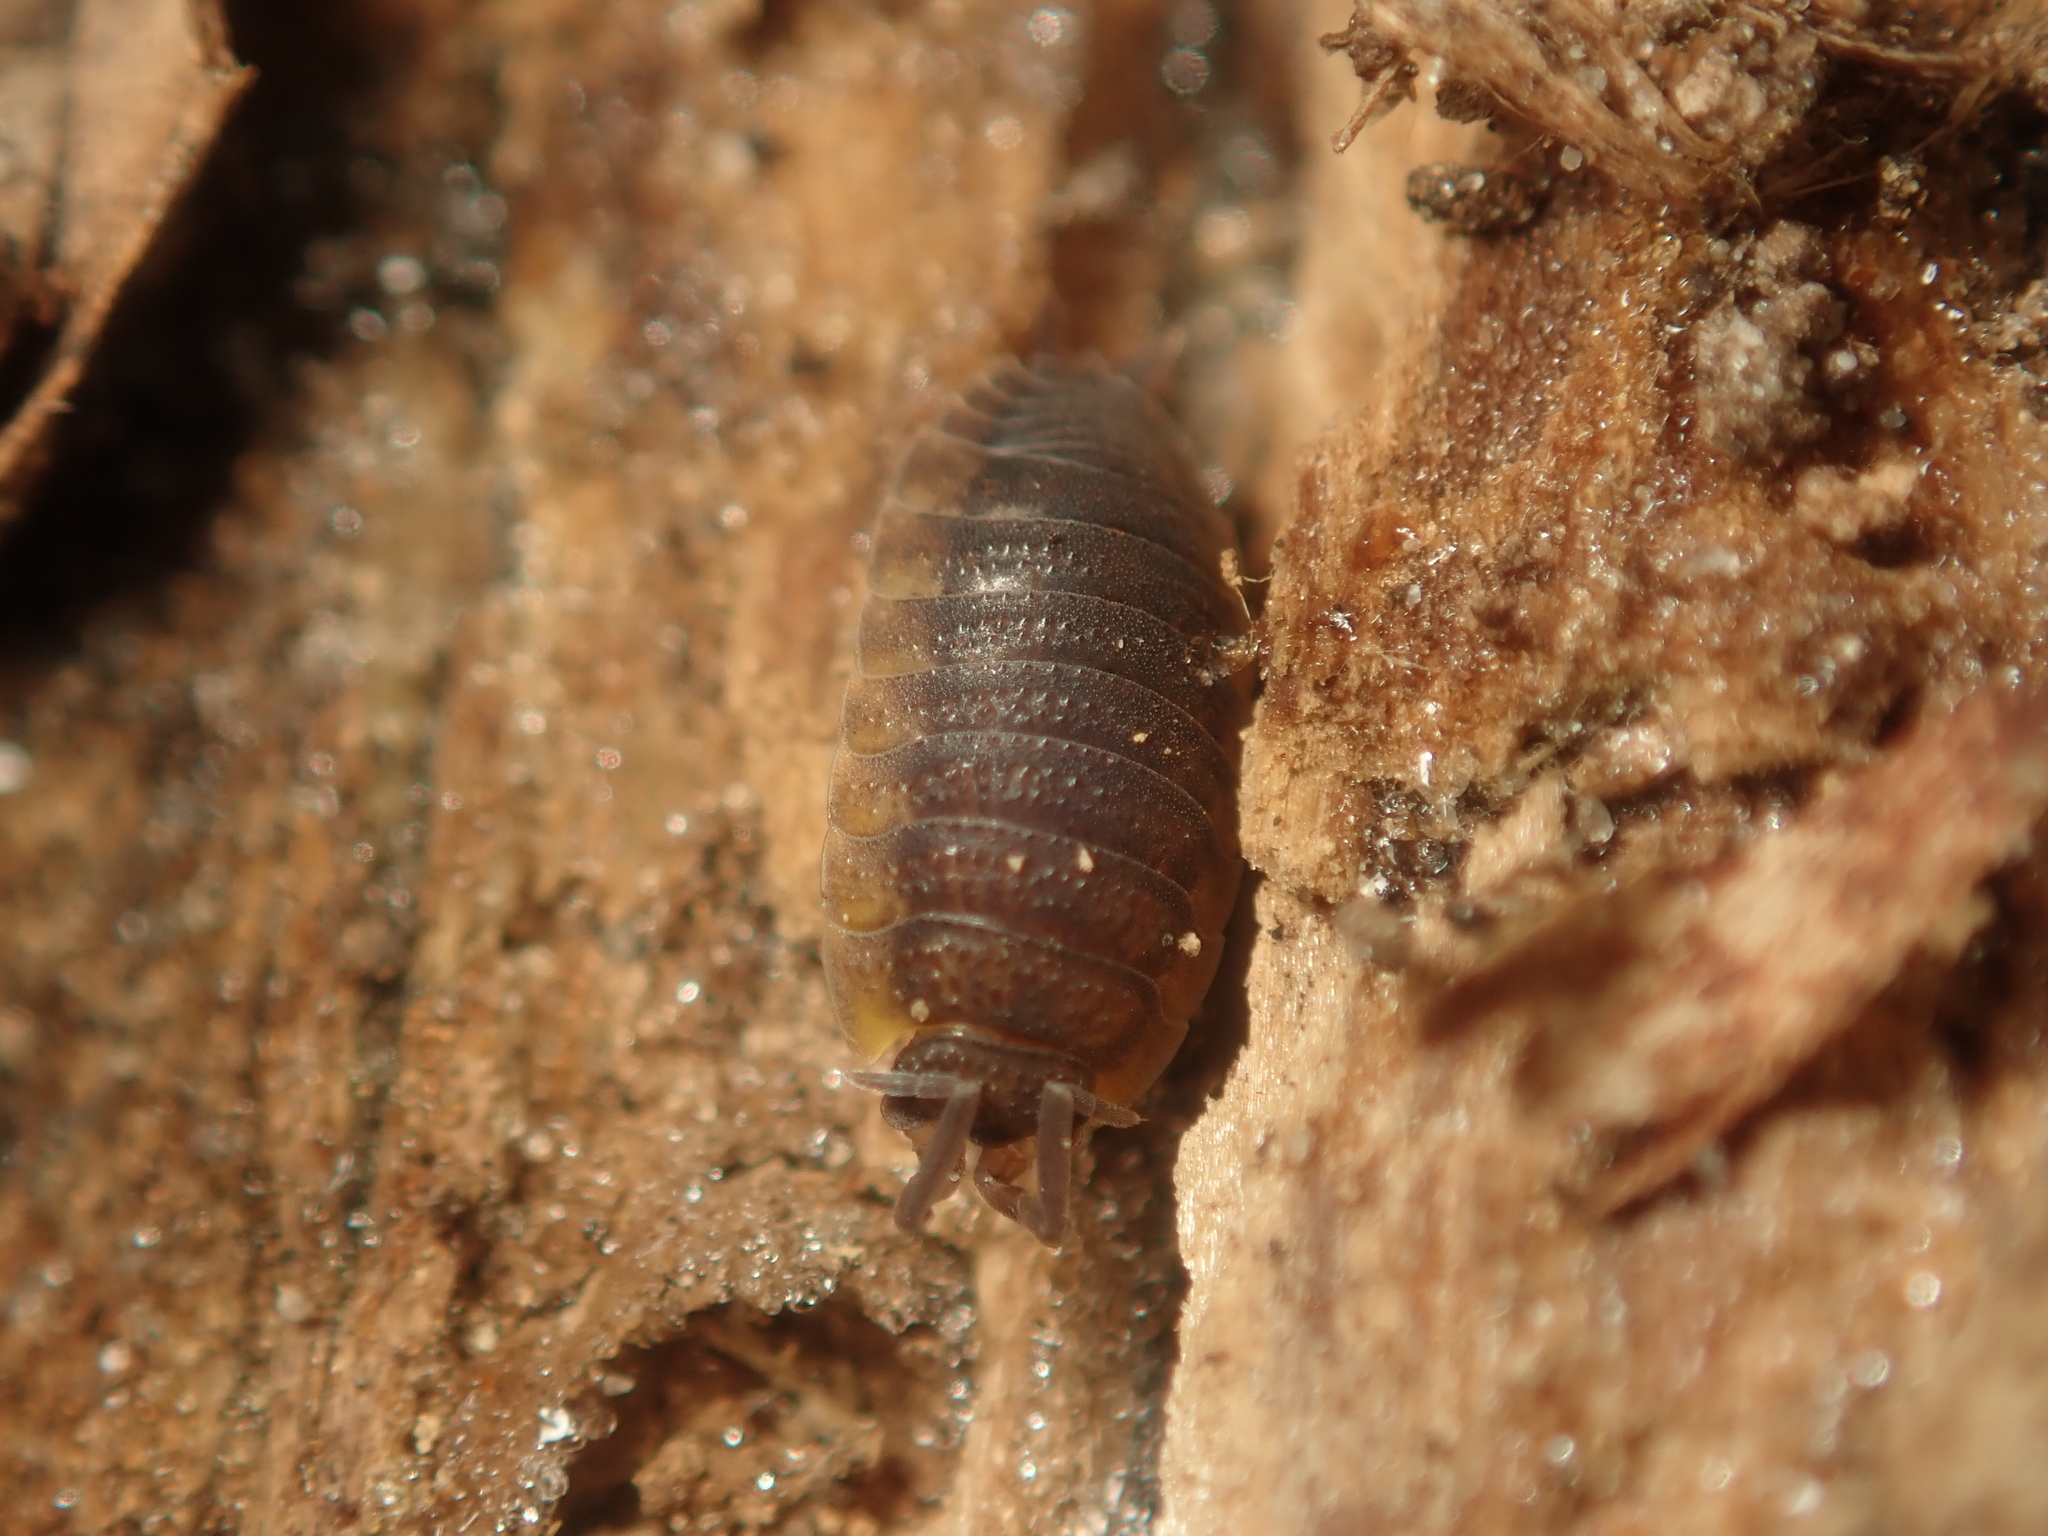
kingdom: Animalia
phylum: Arthropoda
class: Malacostraca
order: Isopoda
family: Porcellionidae
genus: Porcellio
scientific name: Porcellio scaber
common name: Common rough woodlouse
